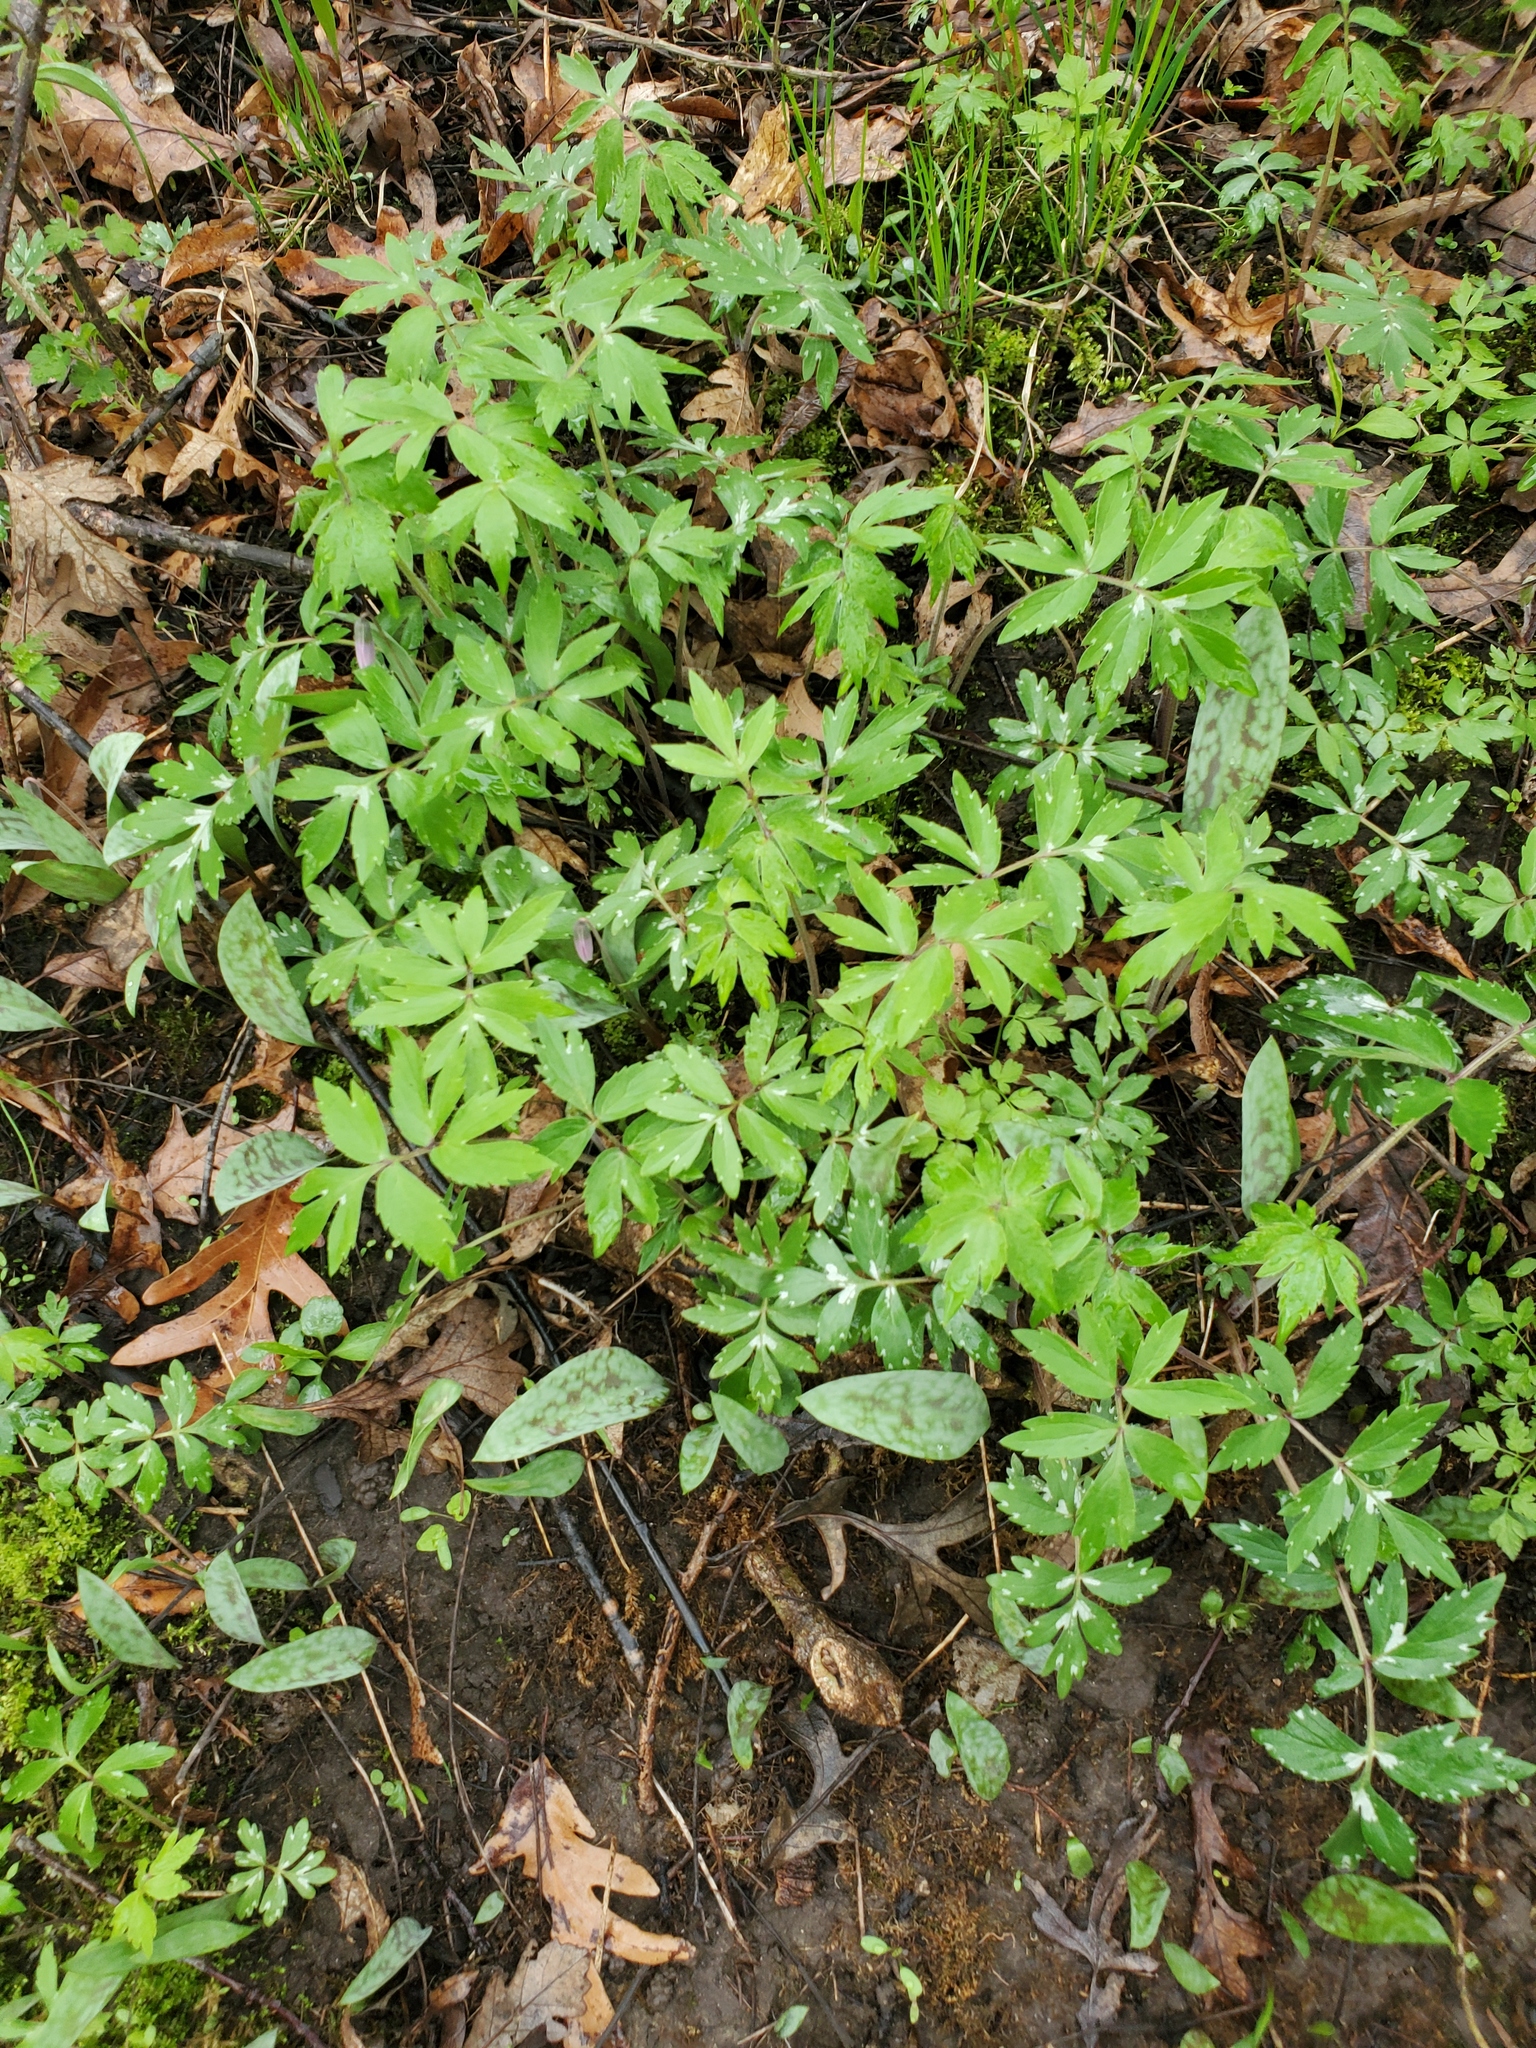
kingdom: Plantae
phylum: Tracheophyta
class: Magnoliopsida
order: Boraginales
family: Hydrophyllaceae
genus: Hydrophyllum
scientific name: Hydrophyllum virginianum
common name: Virginia waterleaf
